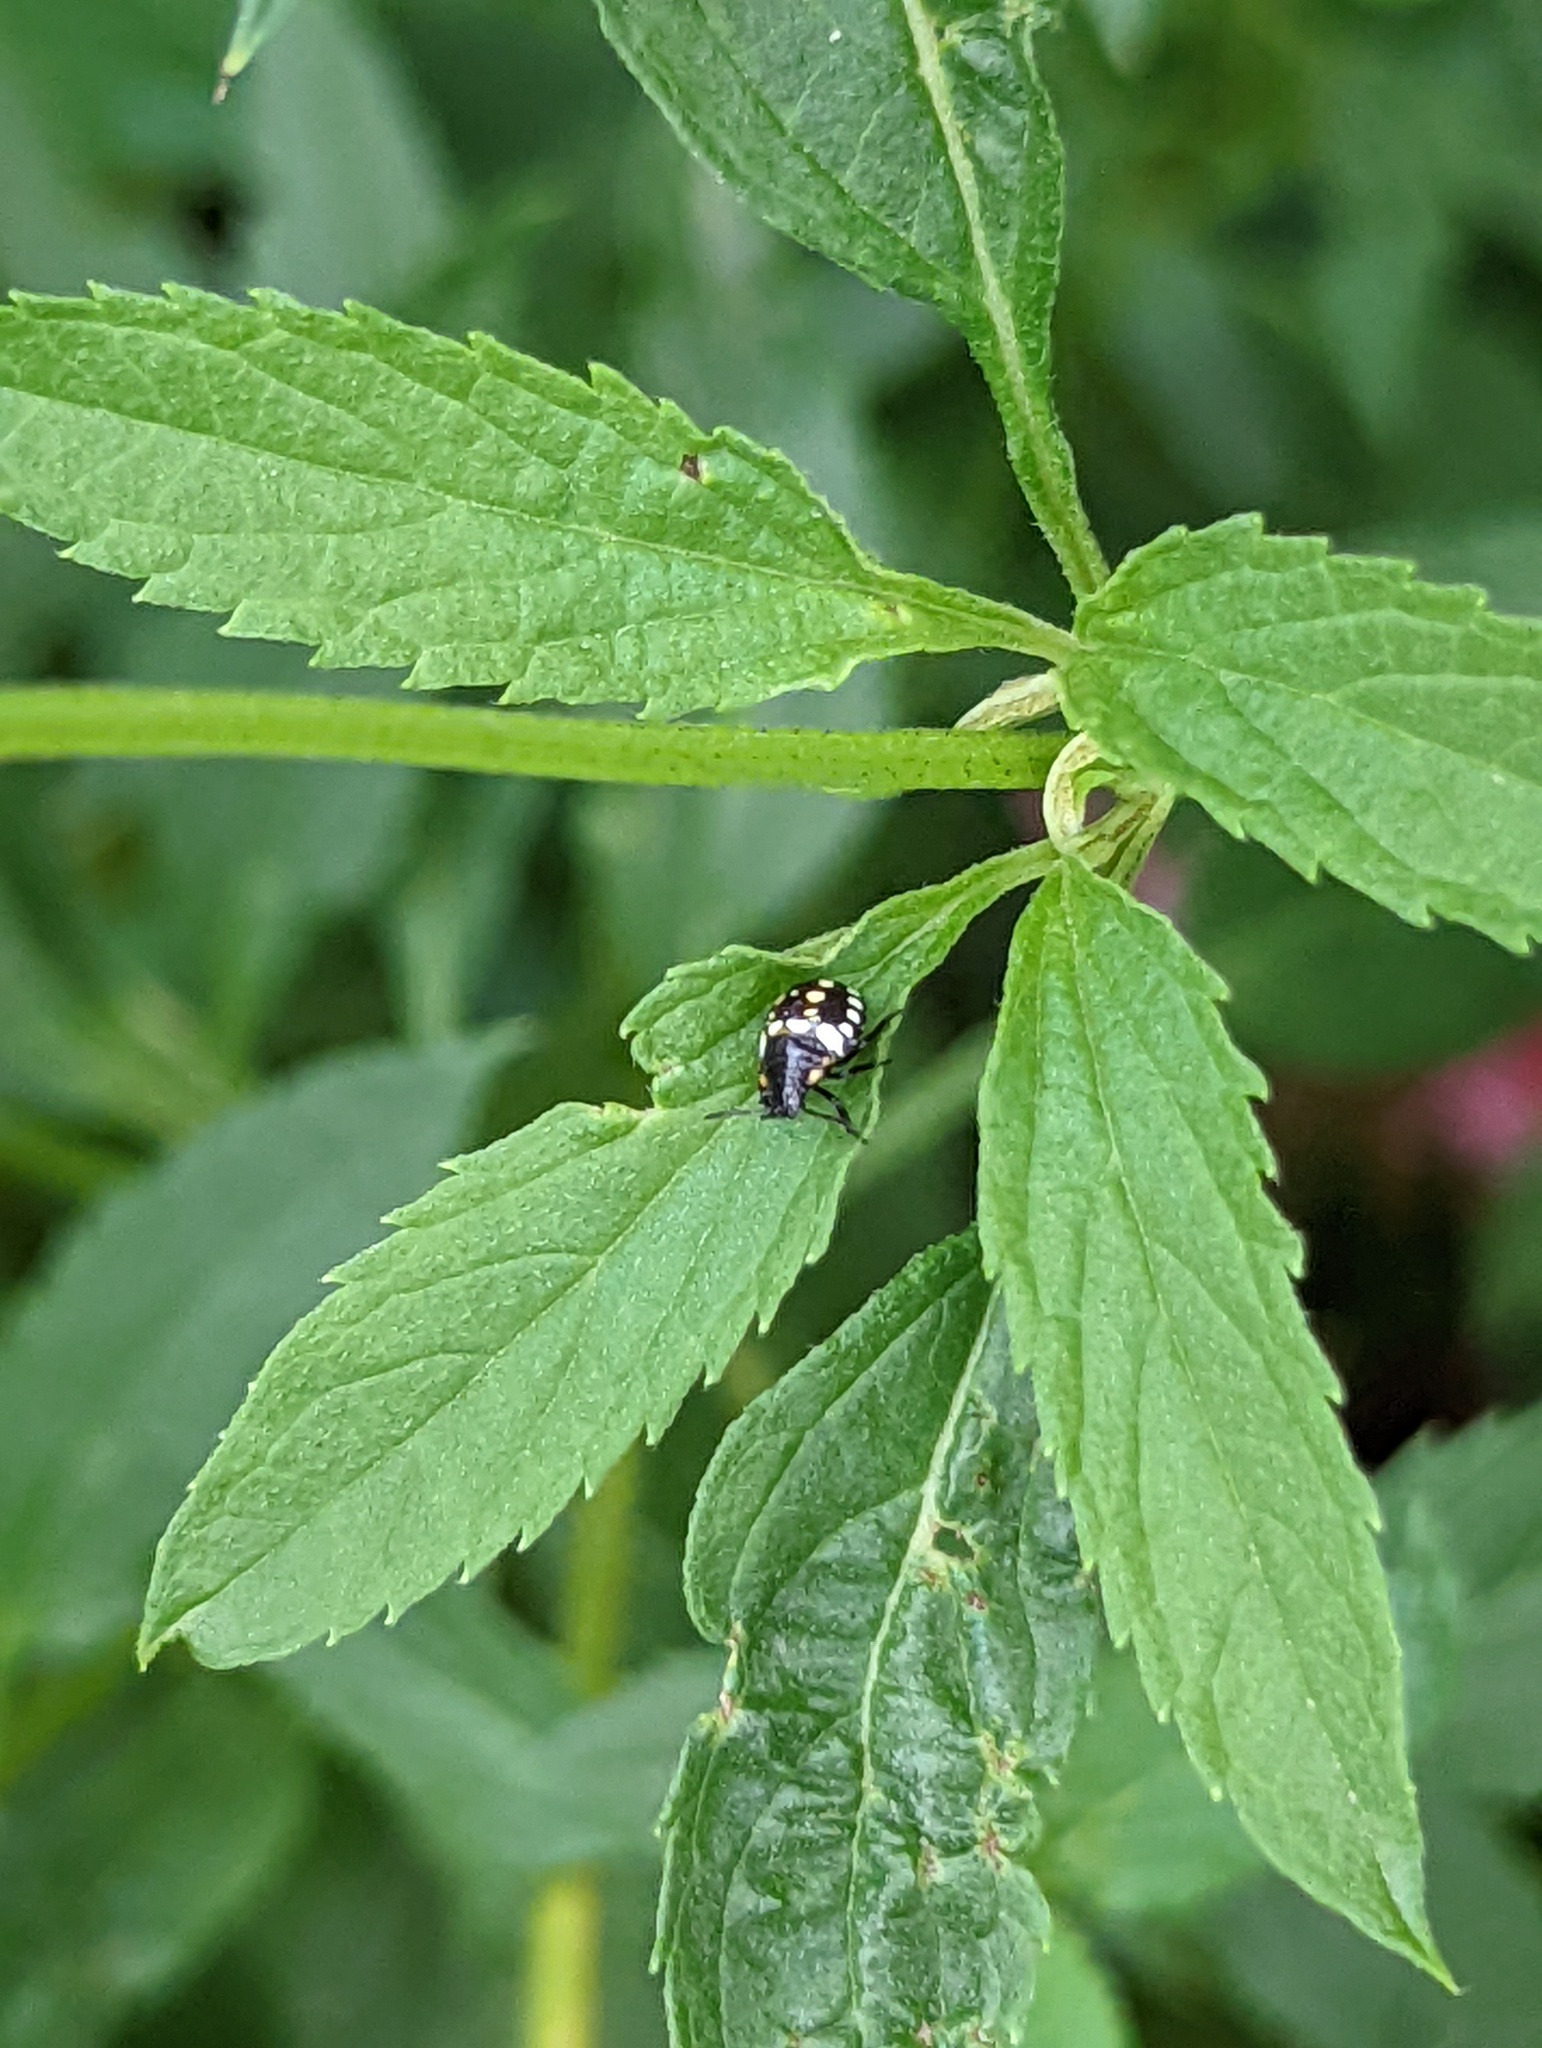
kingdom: Animalia
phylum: Arthropoda
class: Insecta
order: Hemiptera
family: Pentatomidae
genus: Nezara
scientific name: Nezara viridula
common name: Southern green stink bug
